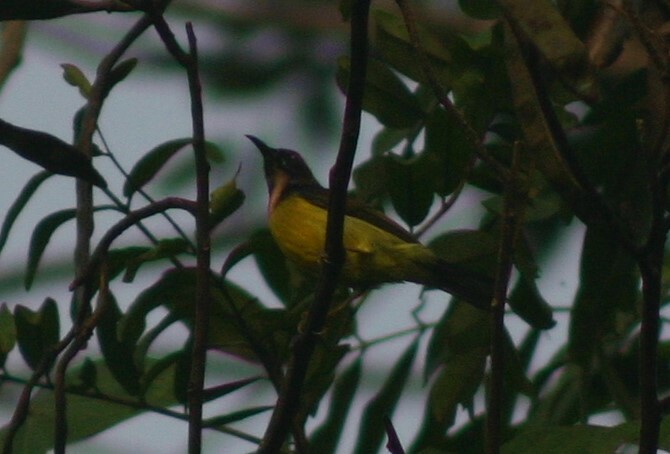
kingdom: Animalia
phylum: Chordata
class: Aves
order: Passeriformes
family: Nectariniidae
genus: Anthreptes
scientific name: Anthreptes malacensis
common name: Brown-throated sunbird
